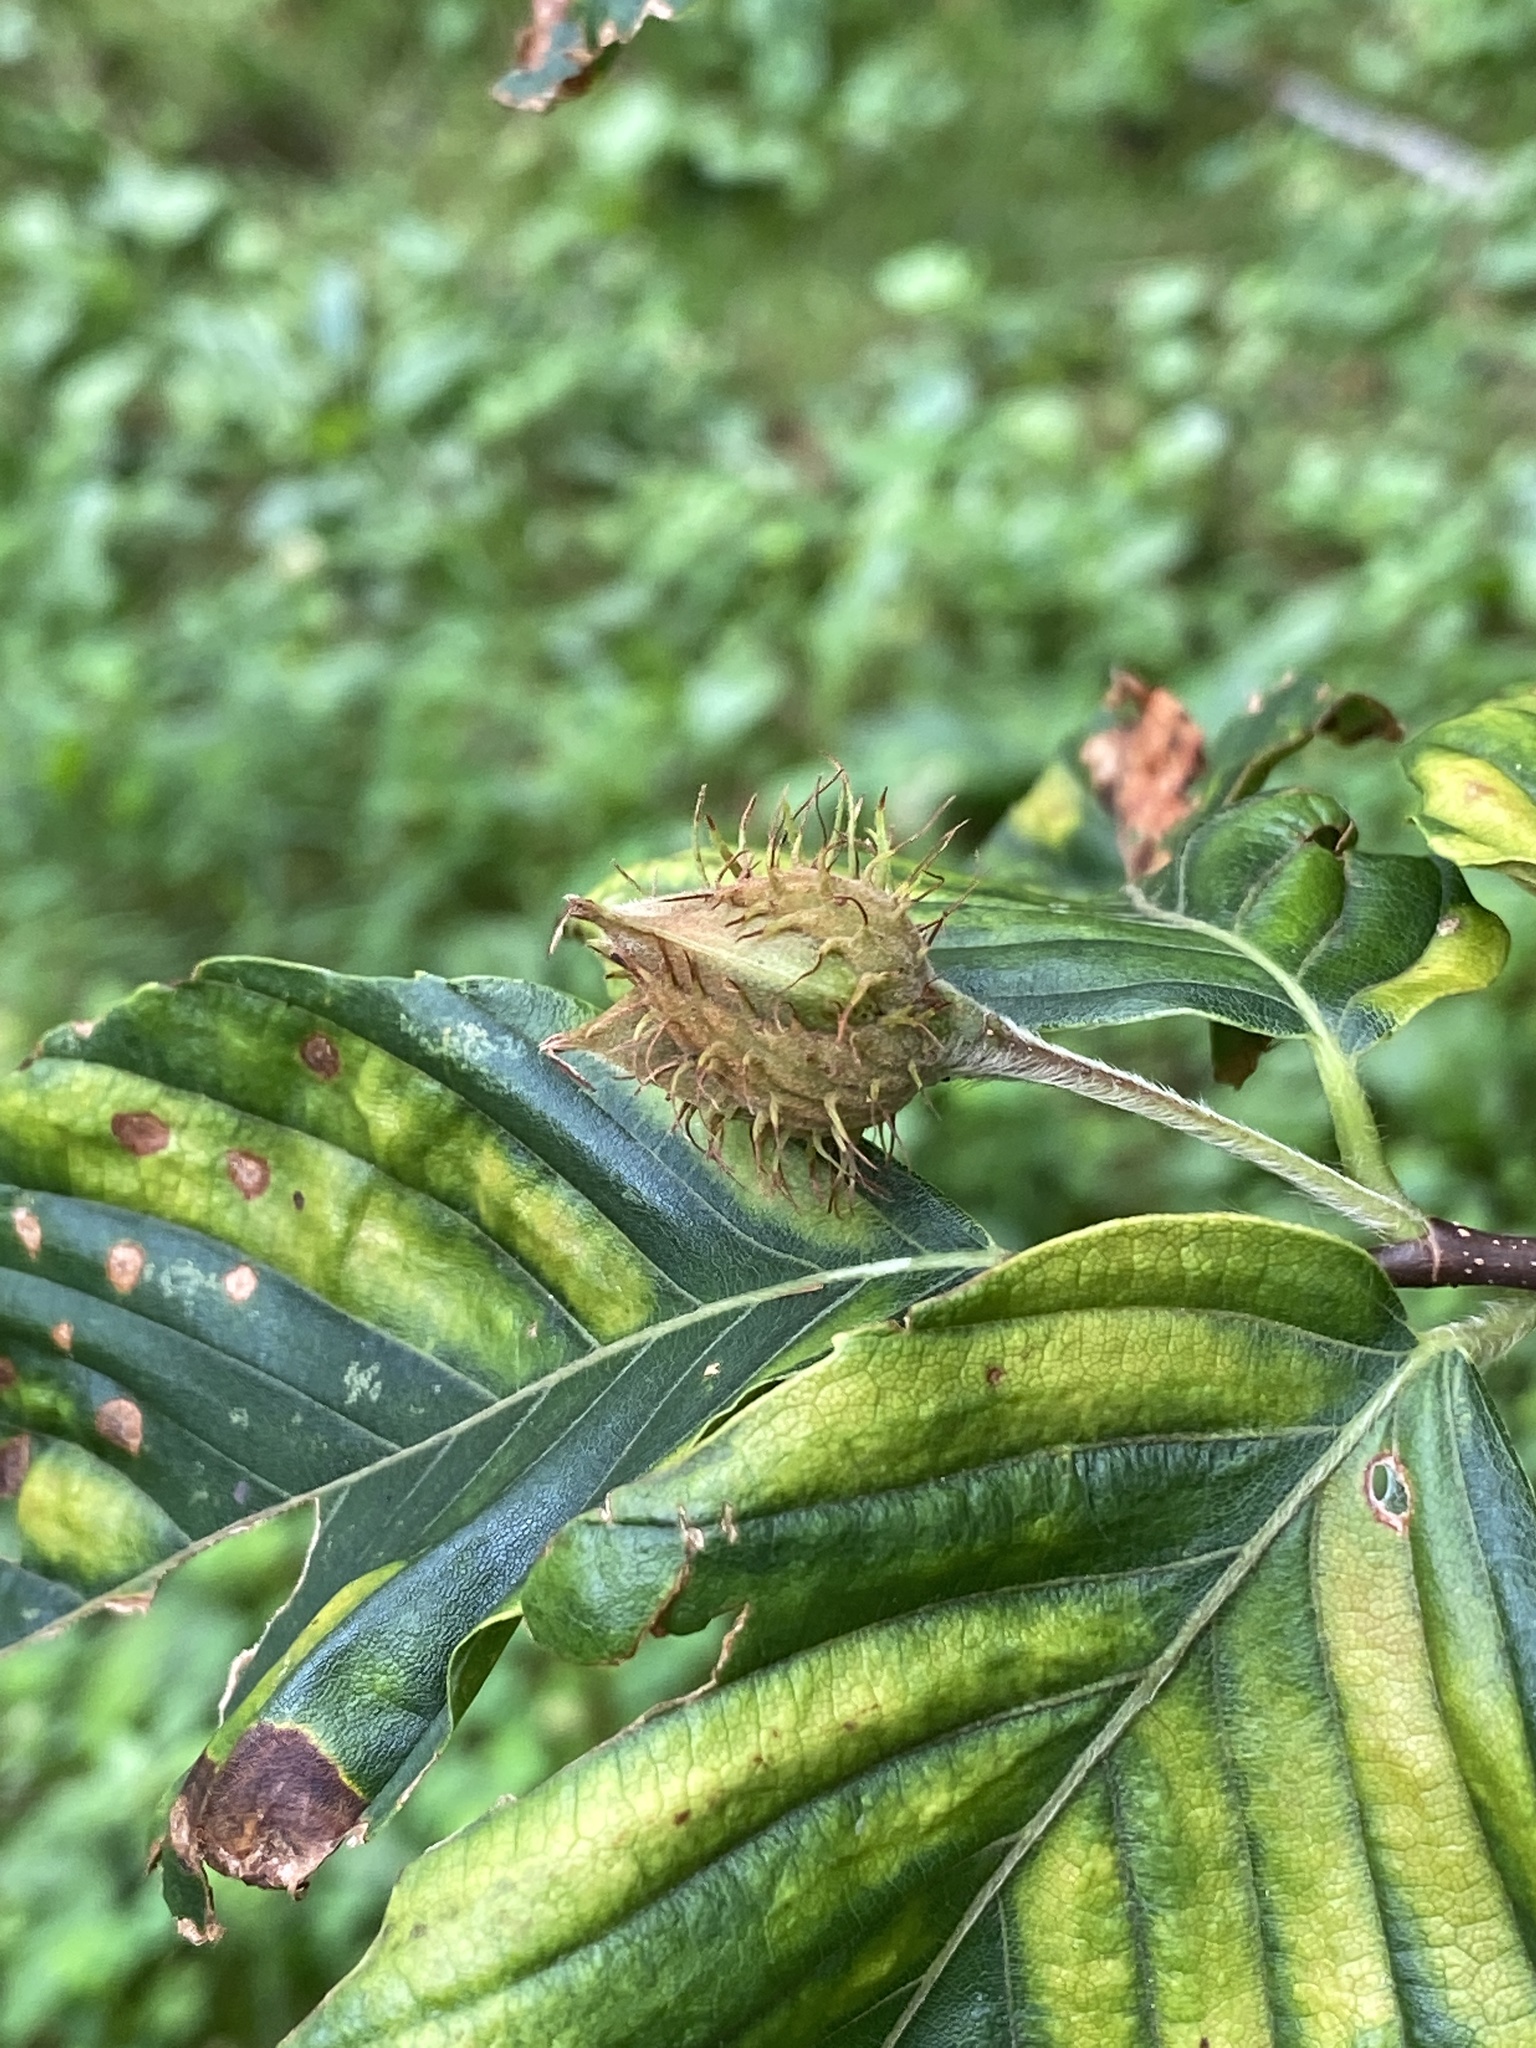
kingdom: Animalia
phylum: Nematoda
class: Chromadorea
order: Rhabditida
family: Anguinidae
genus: Litylenchus
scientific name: Litylenchus crenatae
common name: Beech leaf disease
